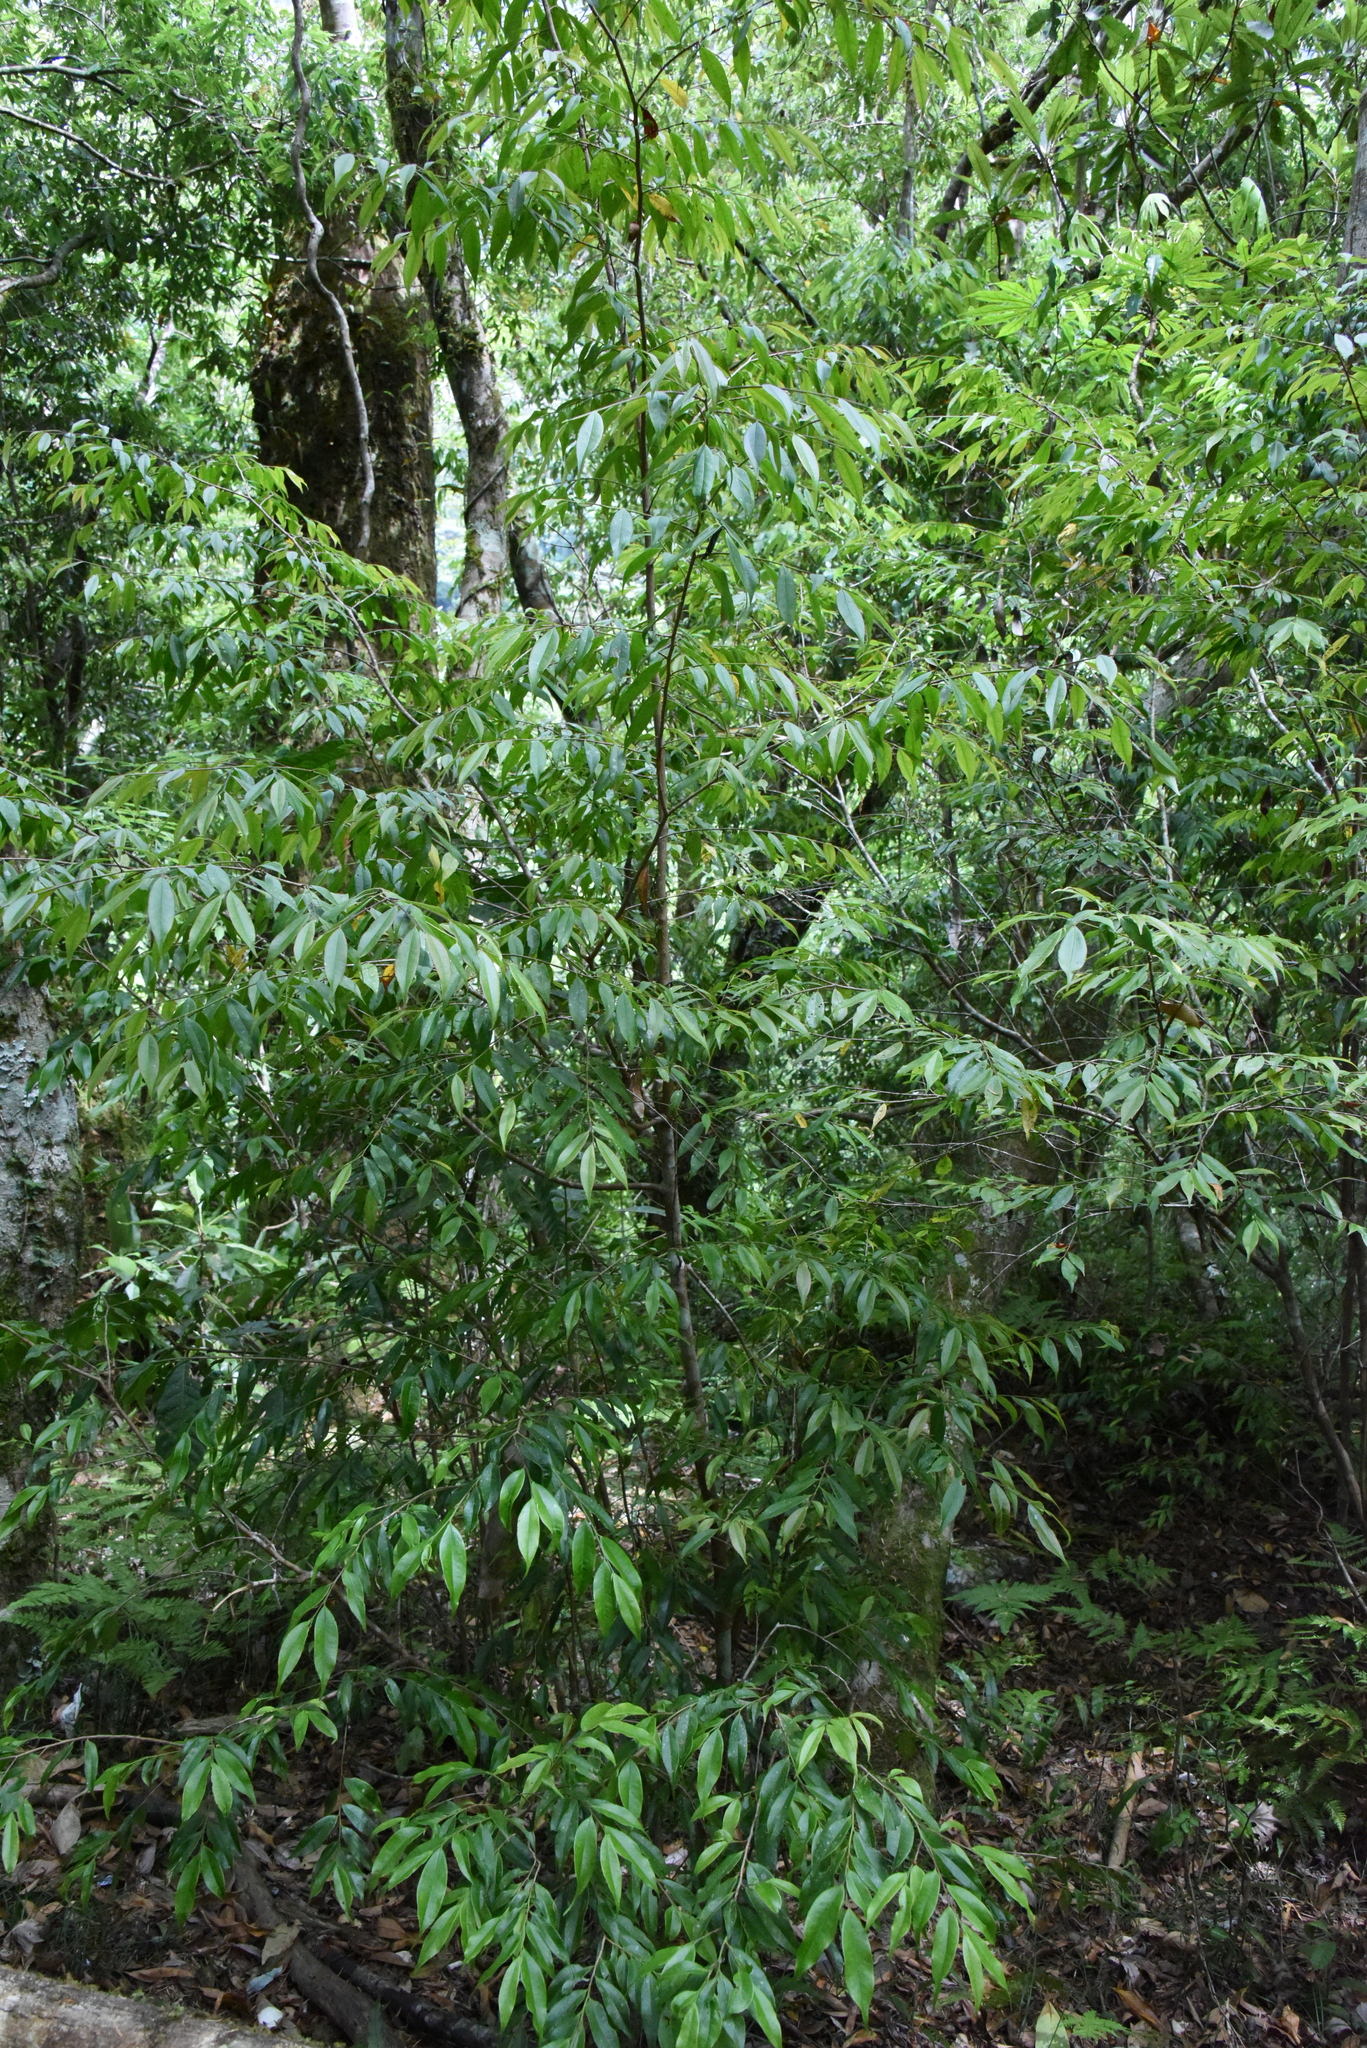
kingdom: Plantae
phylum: Tracheophyta
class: Magnoliopsida
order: Ericales
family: Pentaphylacaceae
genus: Eurya
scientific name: Eurya loquaiana
